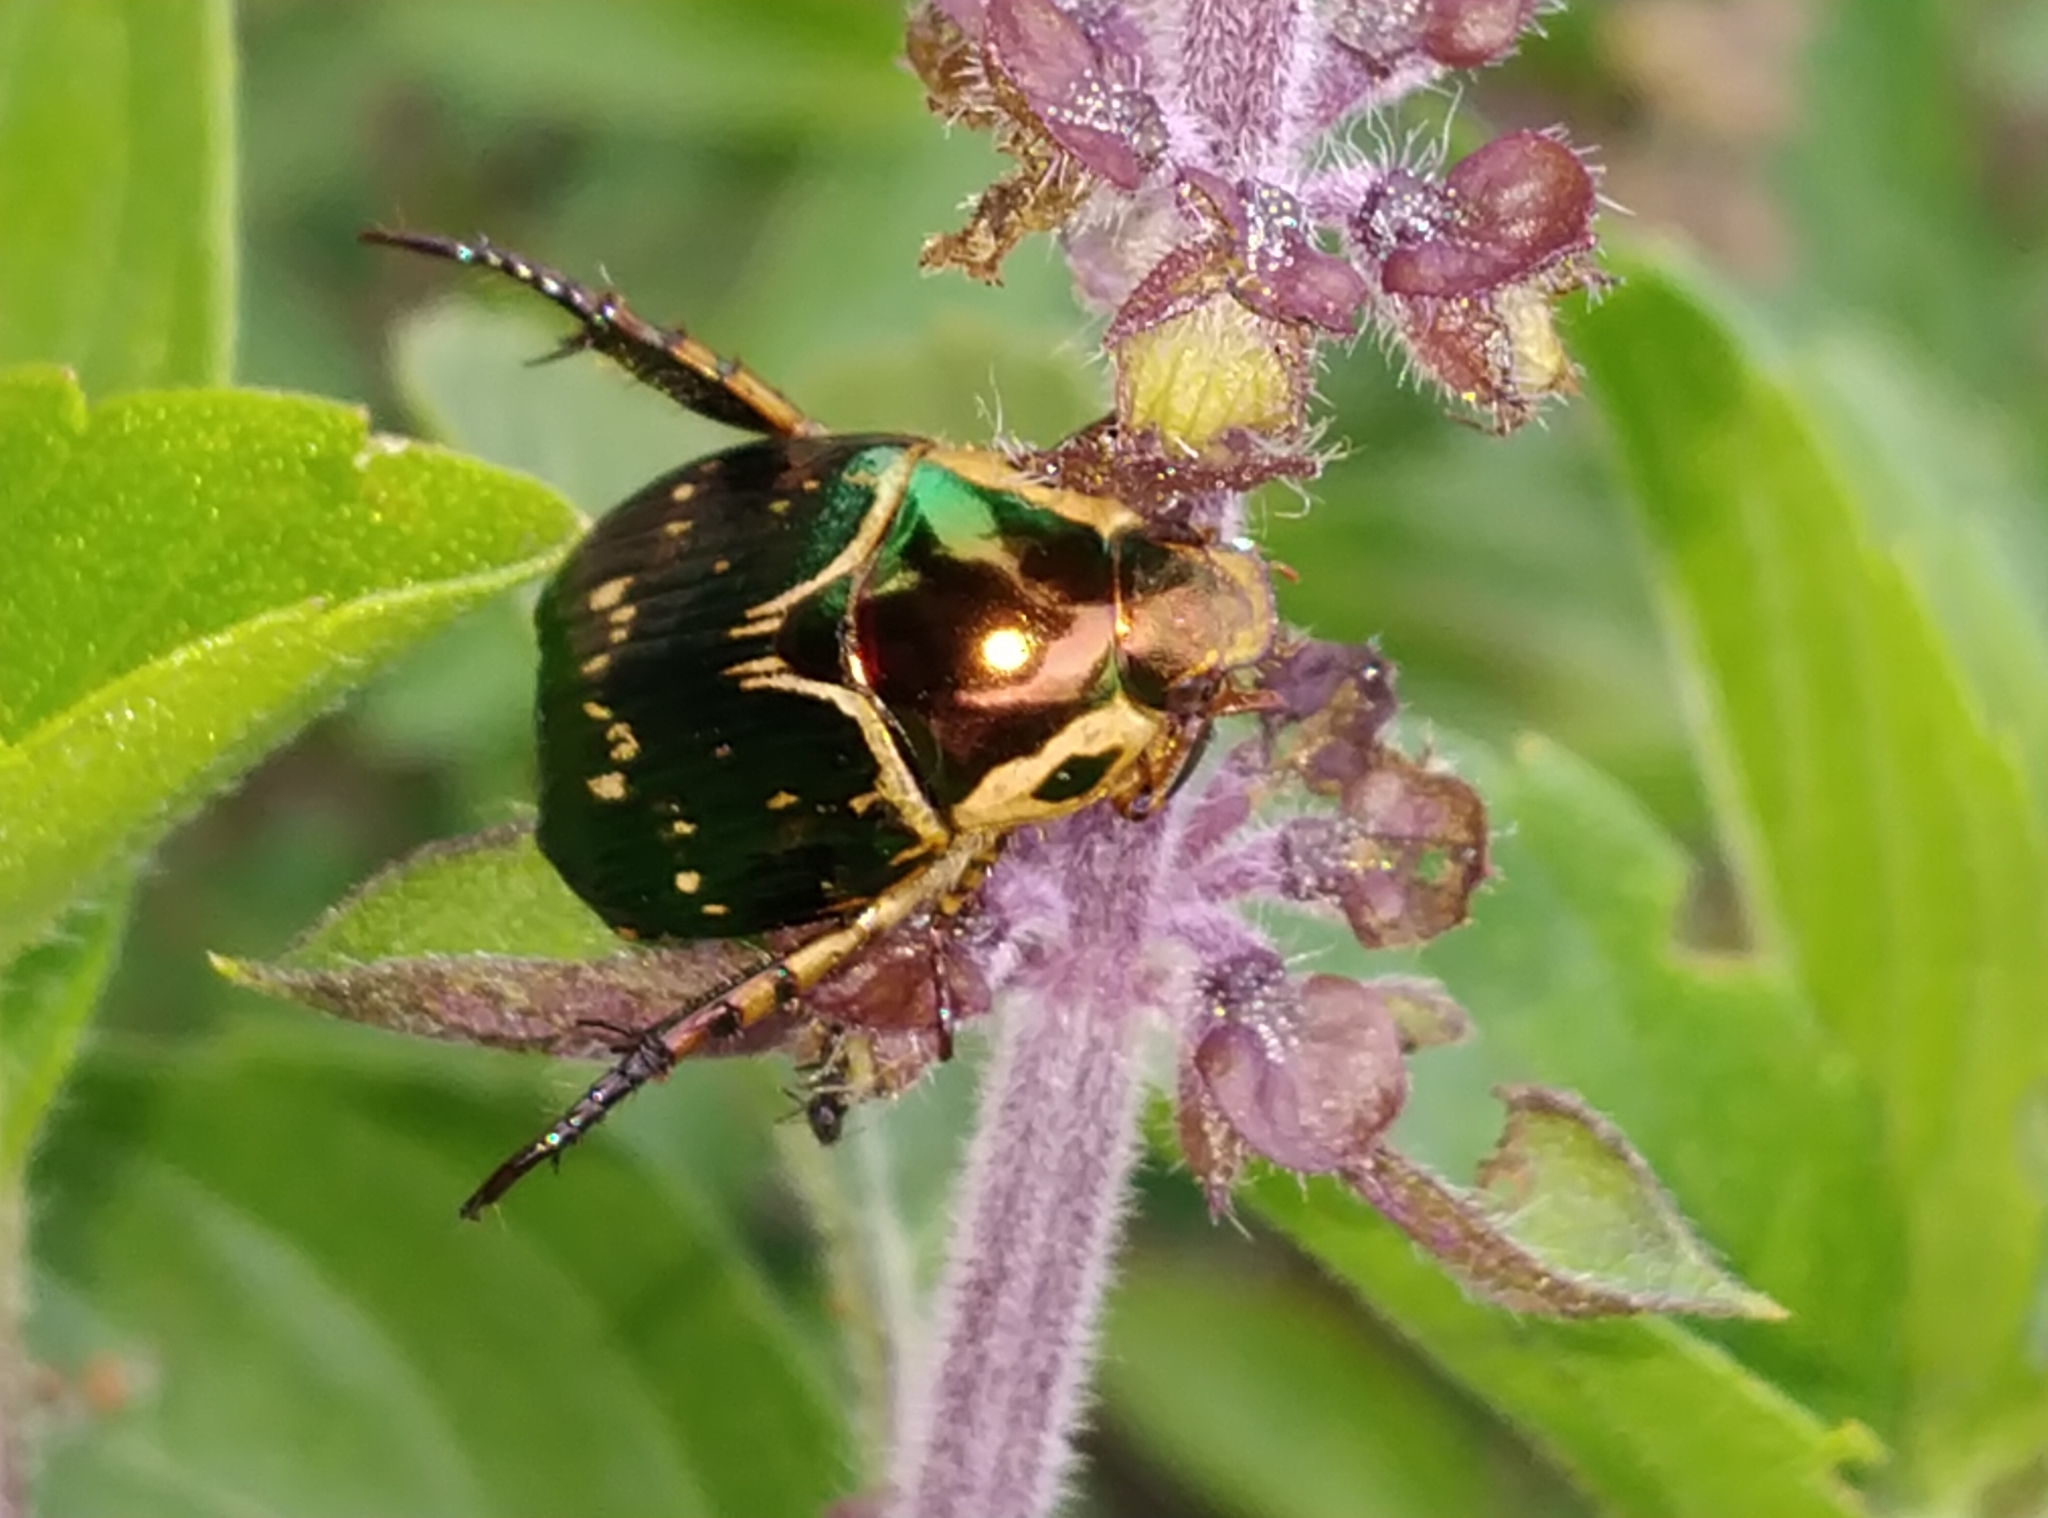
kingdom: Animalia
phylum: Arthropoda
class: Insecta
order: Coleoptera
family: Scarabaeidae
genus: Callistethus
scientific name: Callistethus degeneratus
